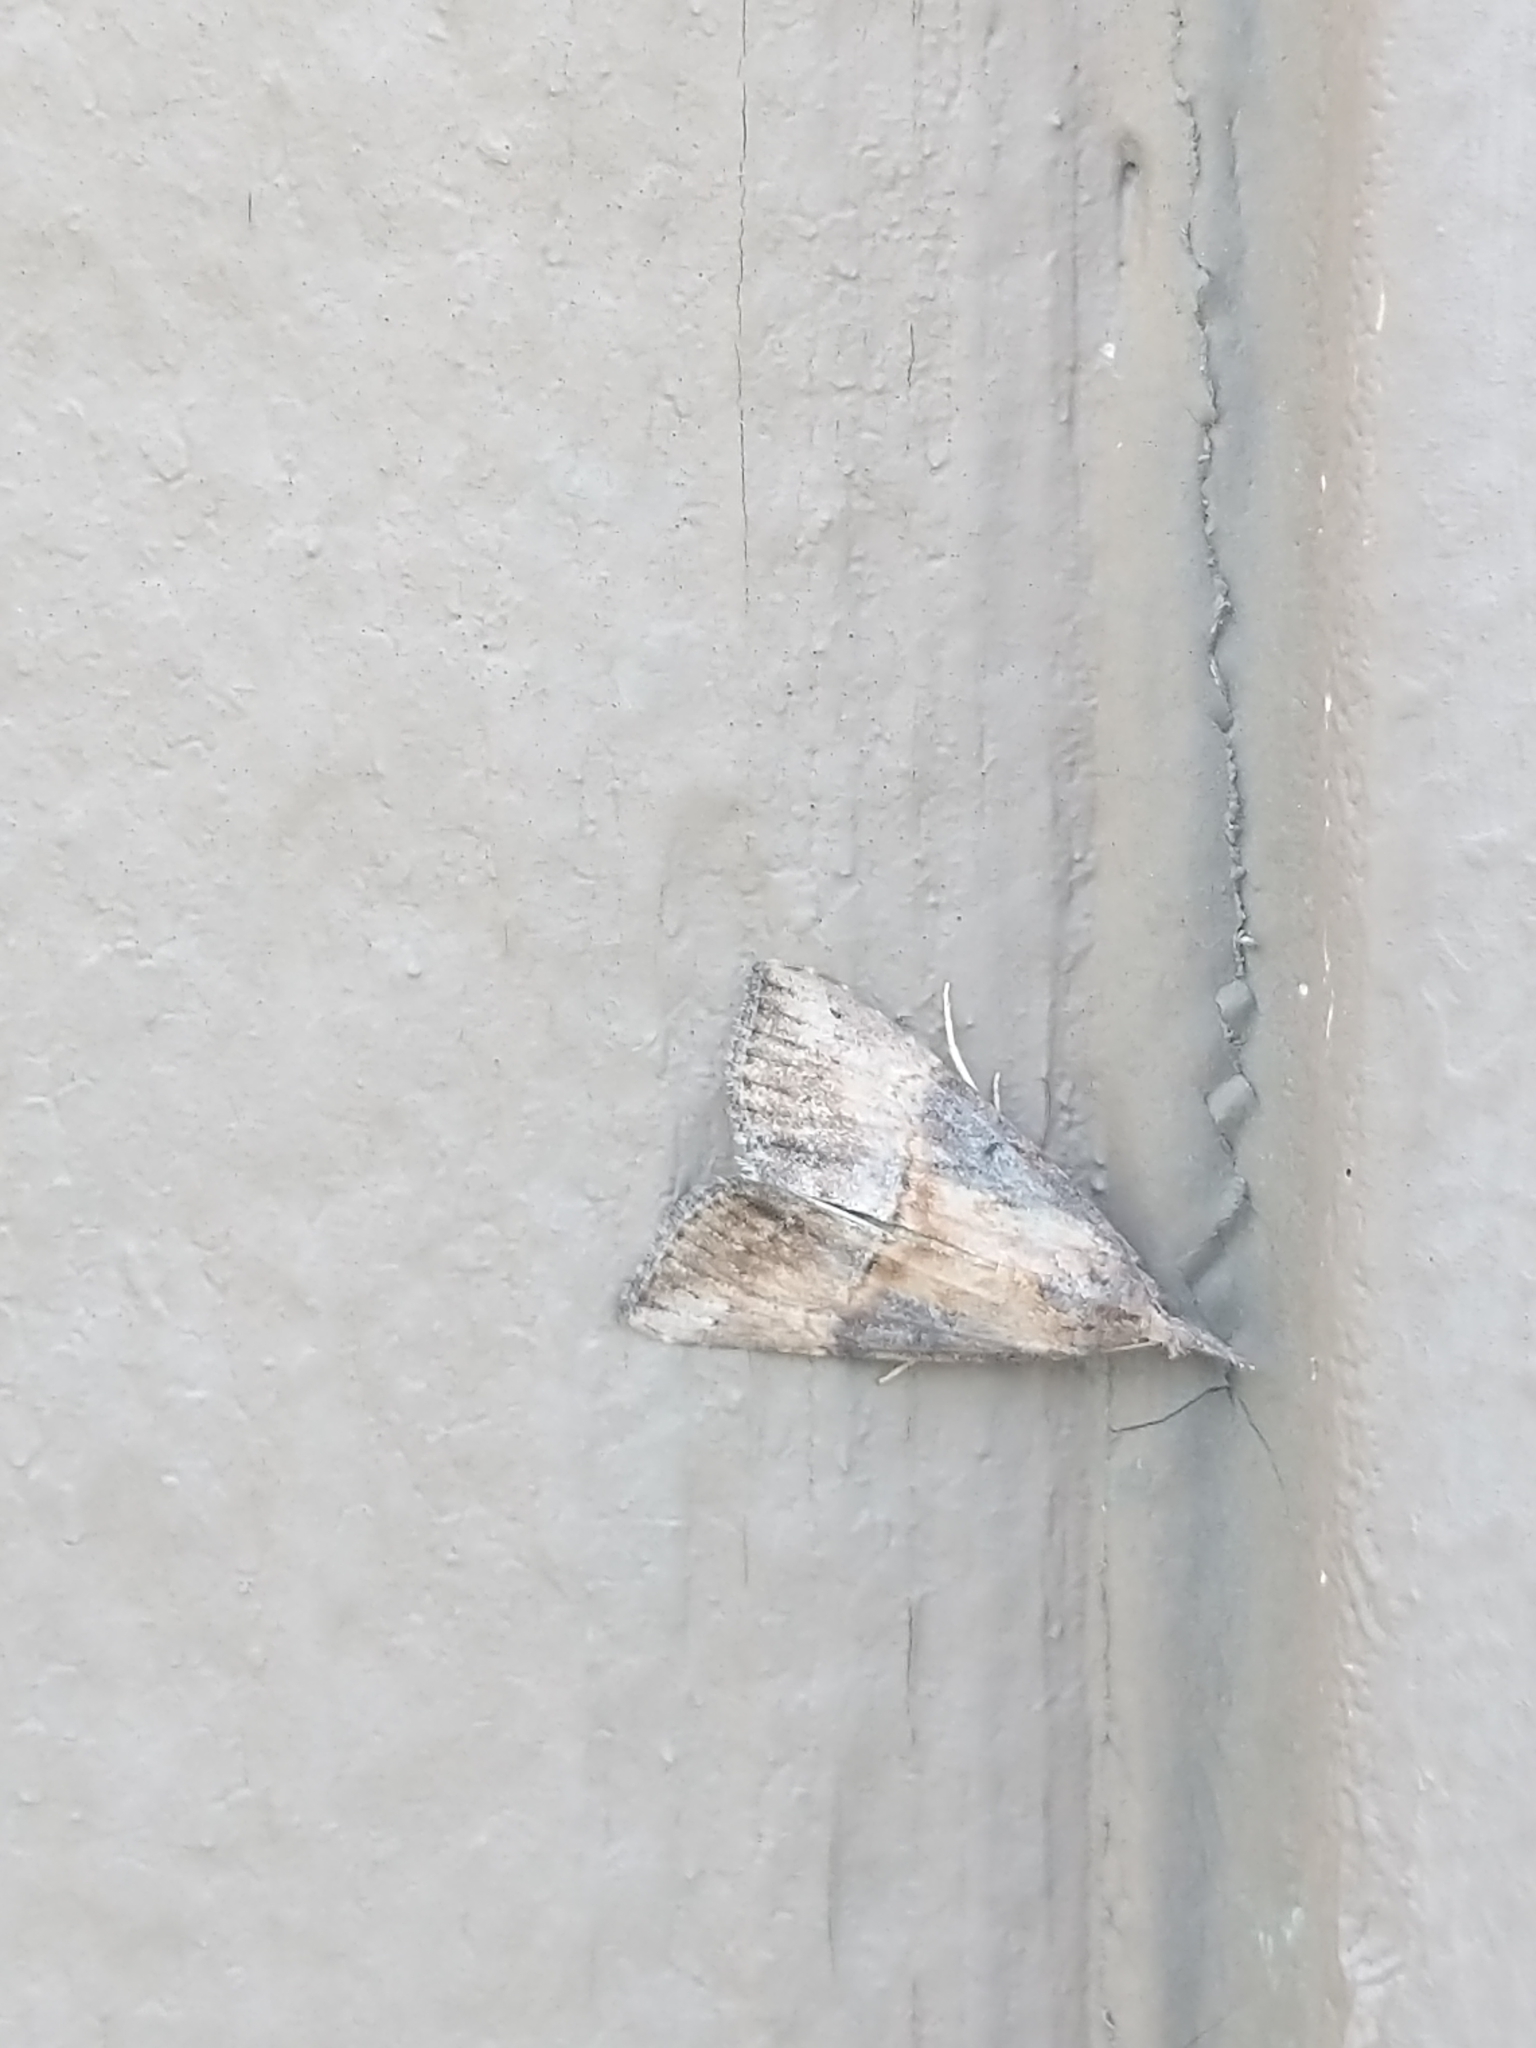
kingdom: Animalia
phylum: Arthropoda
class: Insecta
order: Lepidoptera
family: Erebidae
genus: Hypena
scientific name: Hypena scabra
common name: Green cloverworm
